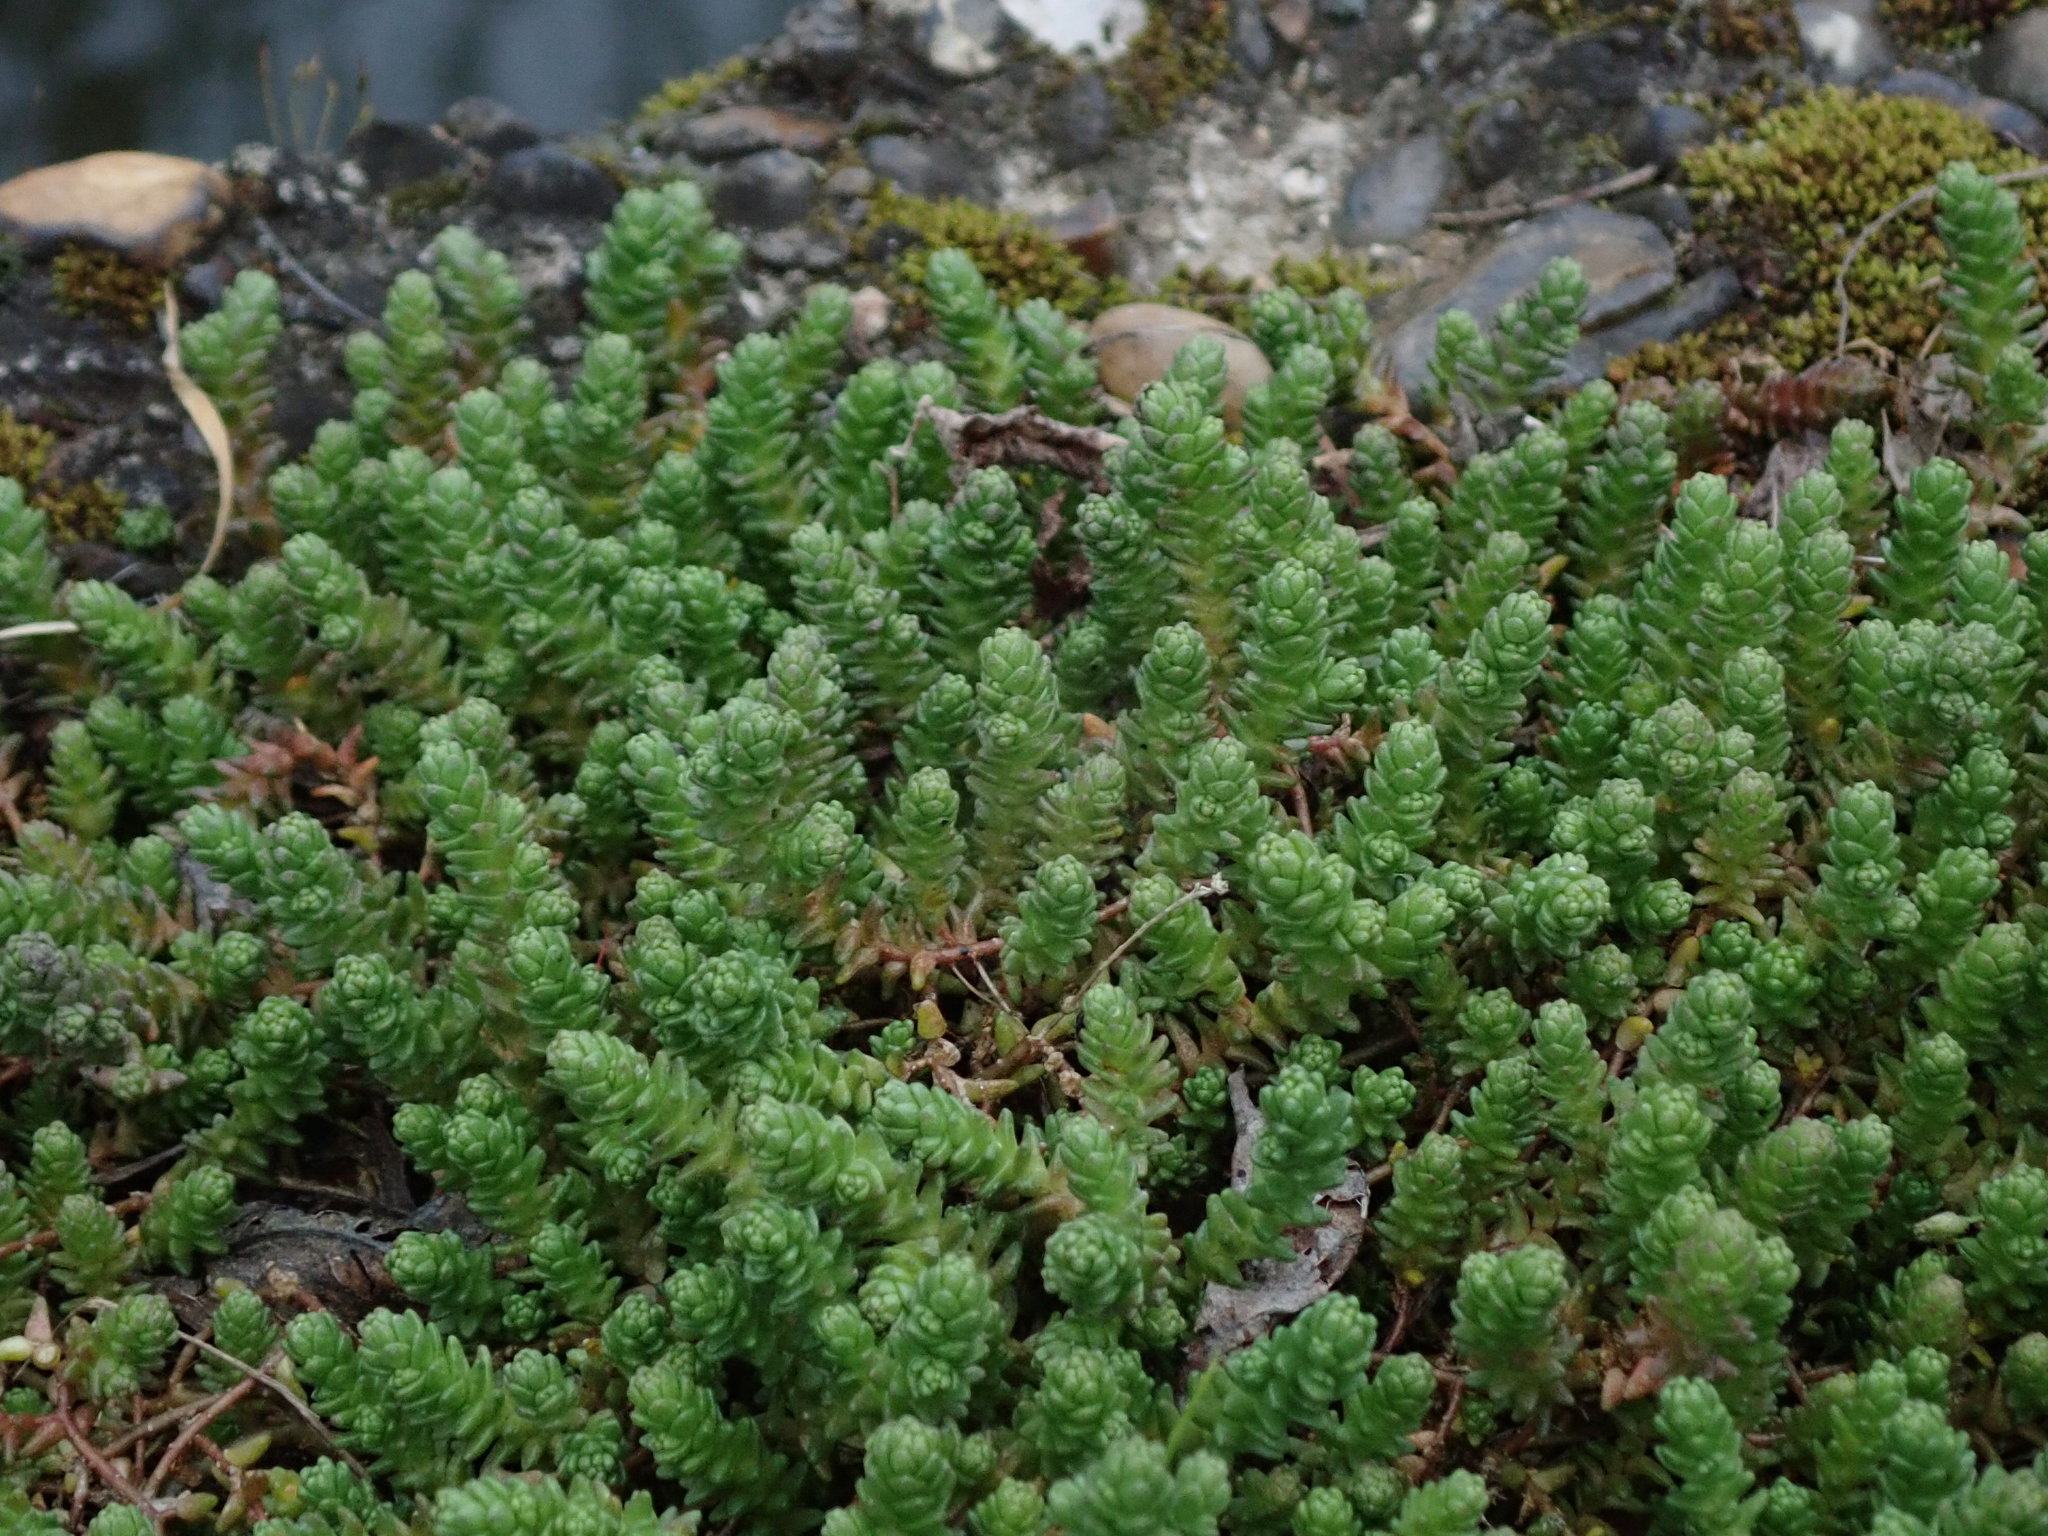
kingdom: Plantae
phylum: Tracheophyta
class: Magnoliopsida
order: Saxifragales
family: Crassulaceae
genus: Sedum
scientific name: Sedum acre
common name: Biting stonecrop
